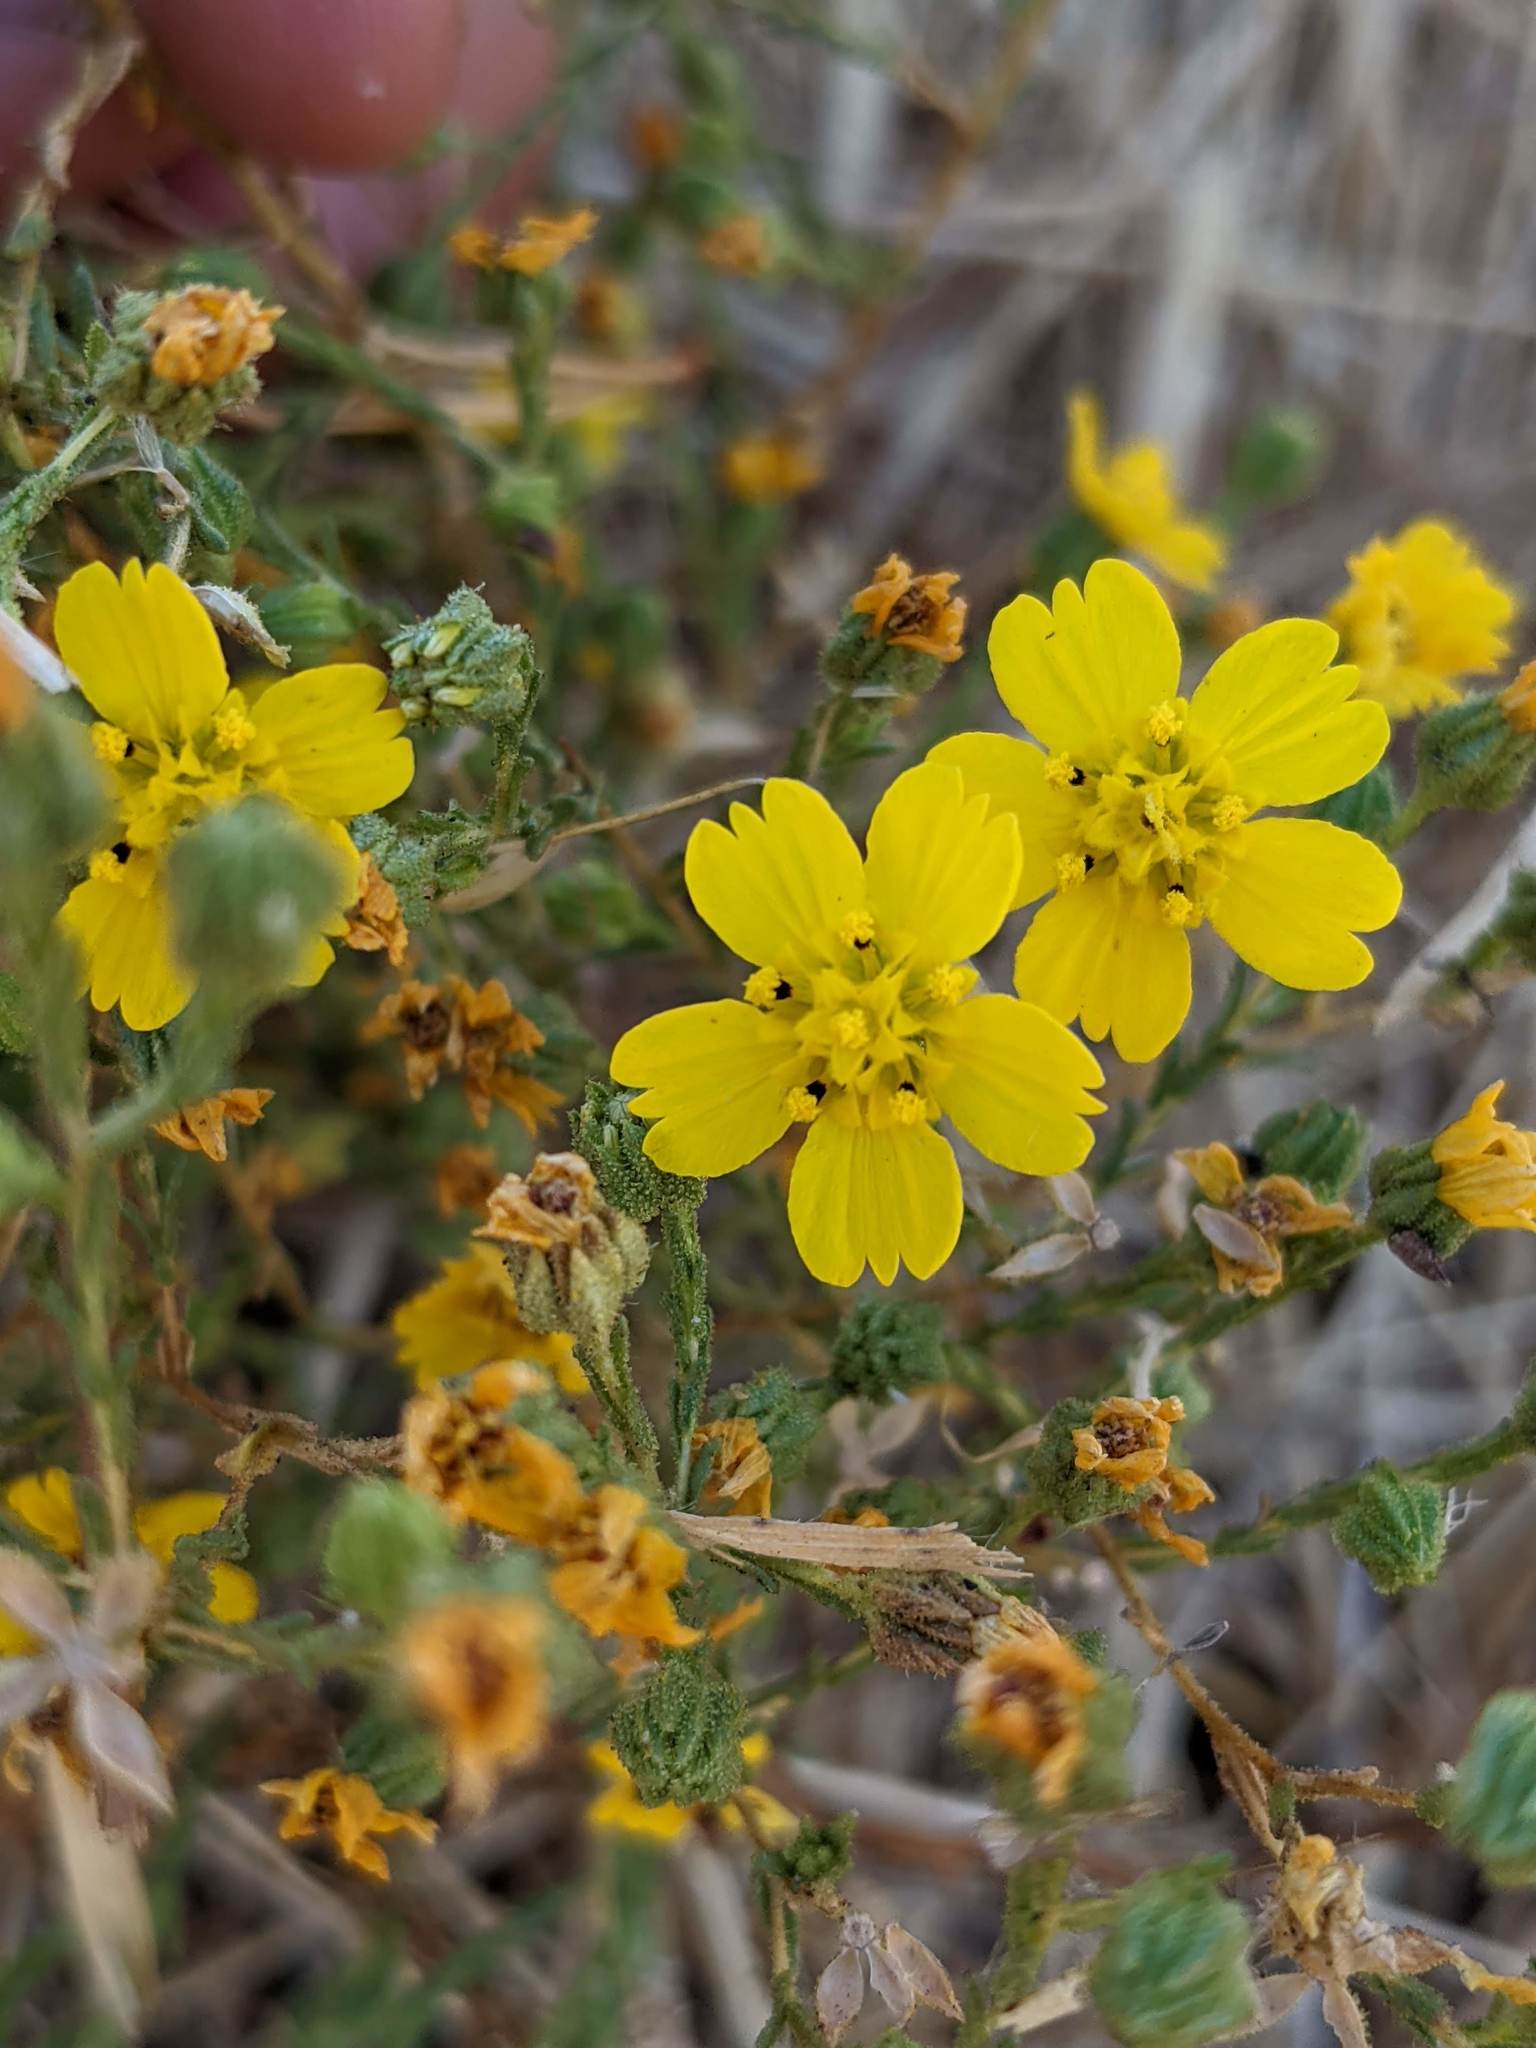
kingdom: Plantae
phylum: Tracheophyta
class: Magnoliopsida
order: Asterales
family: Asteraceae
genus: Deinandra
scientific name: Deinandra pentactis
